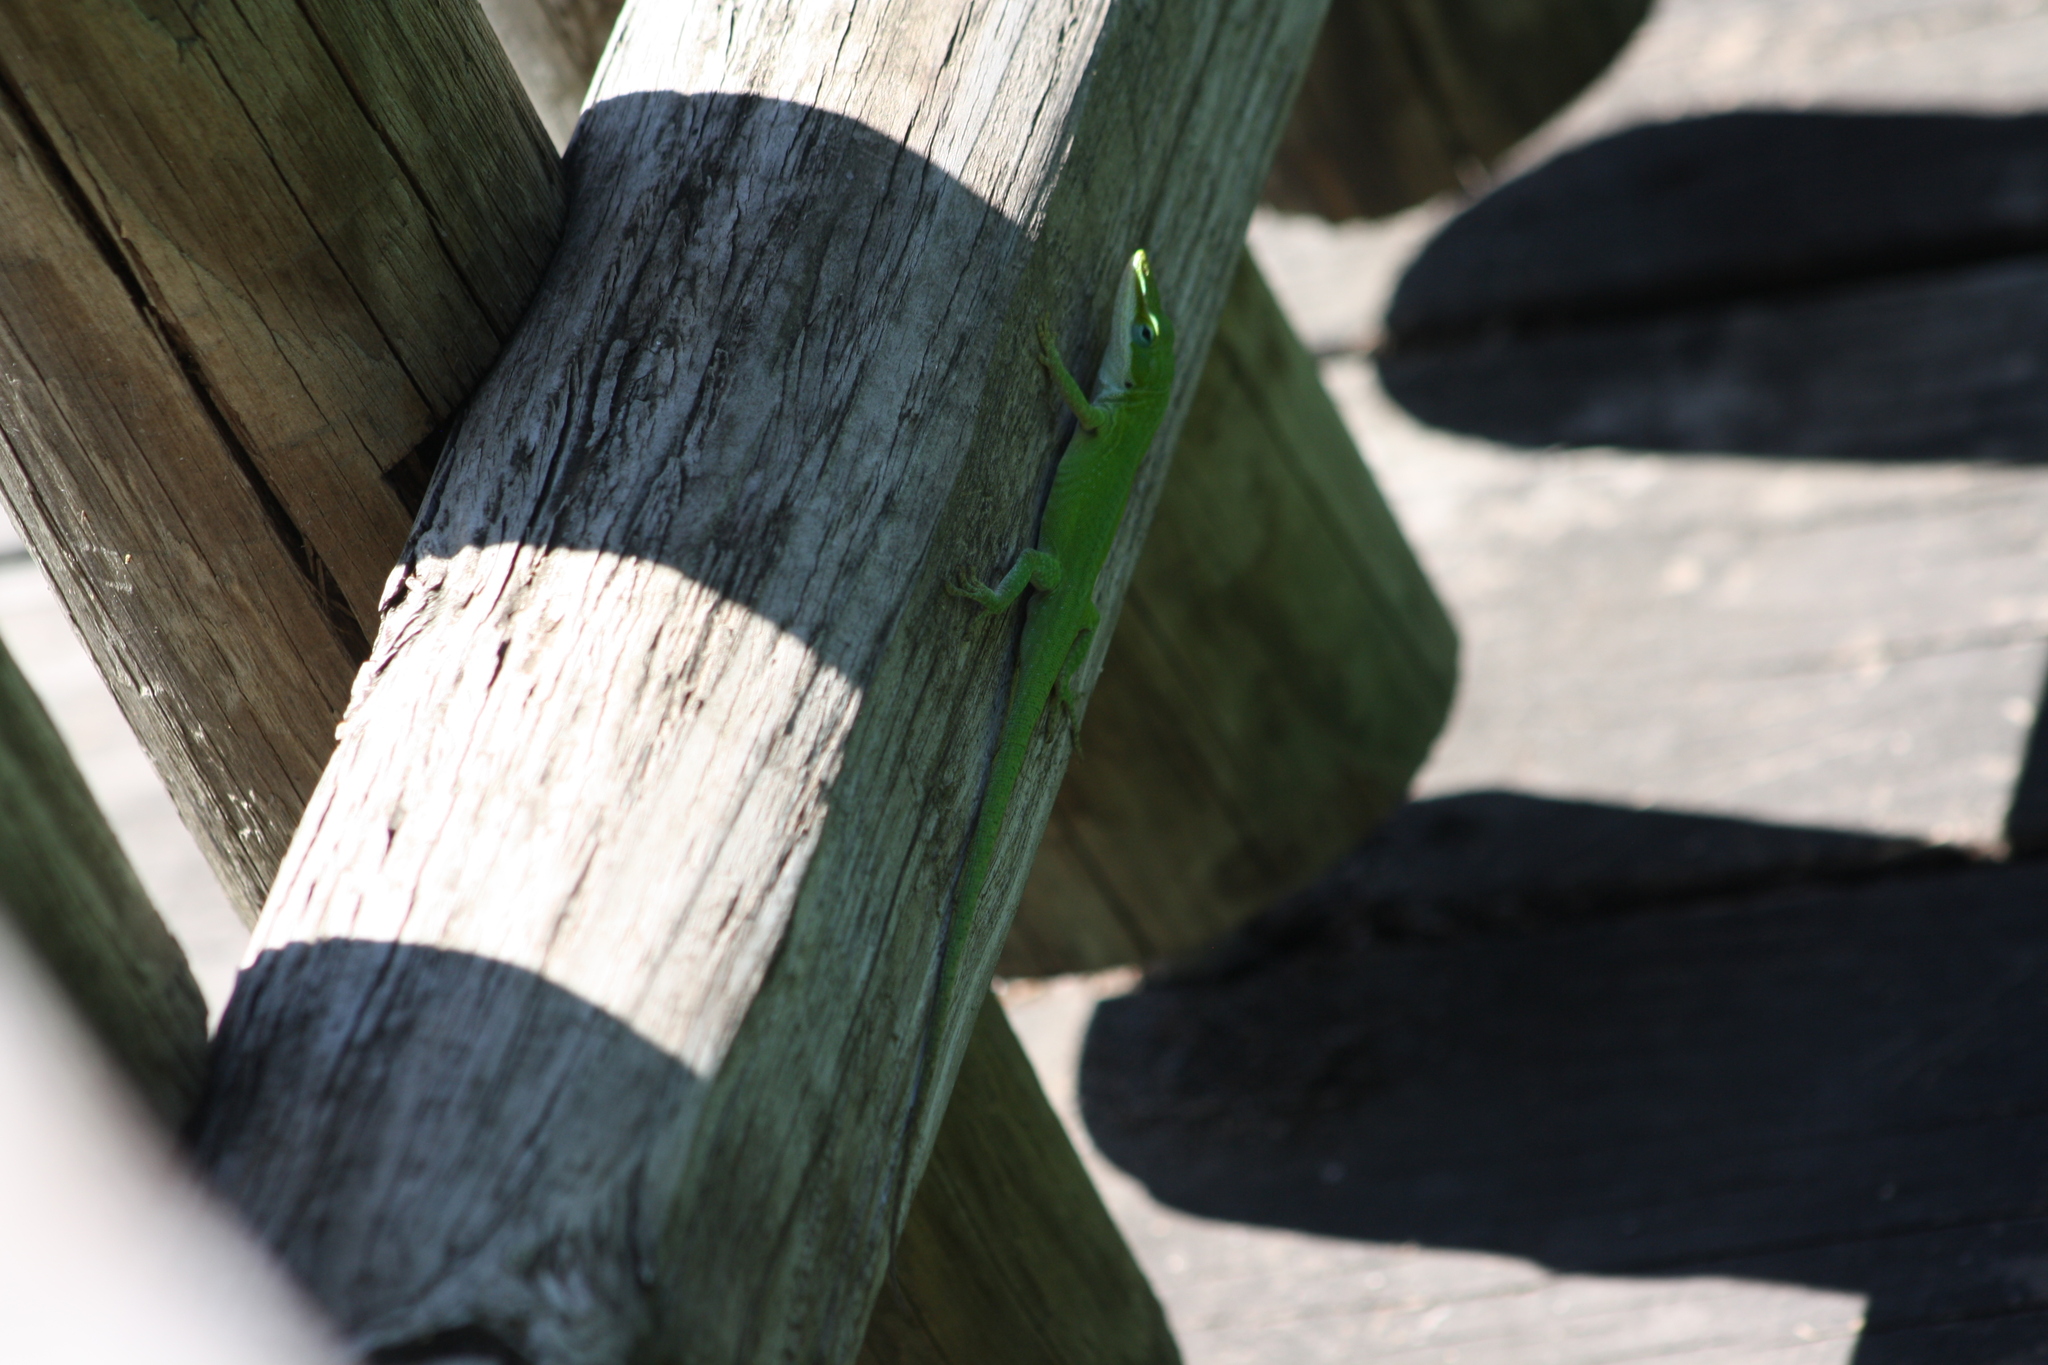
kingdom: Animalia
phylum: Chordata
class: Squamata
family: Dactyloidae
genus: Anolis
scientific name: Anolis carolinensis
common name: Green anole
